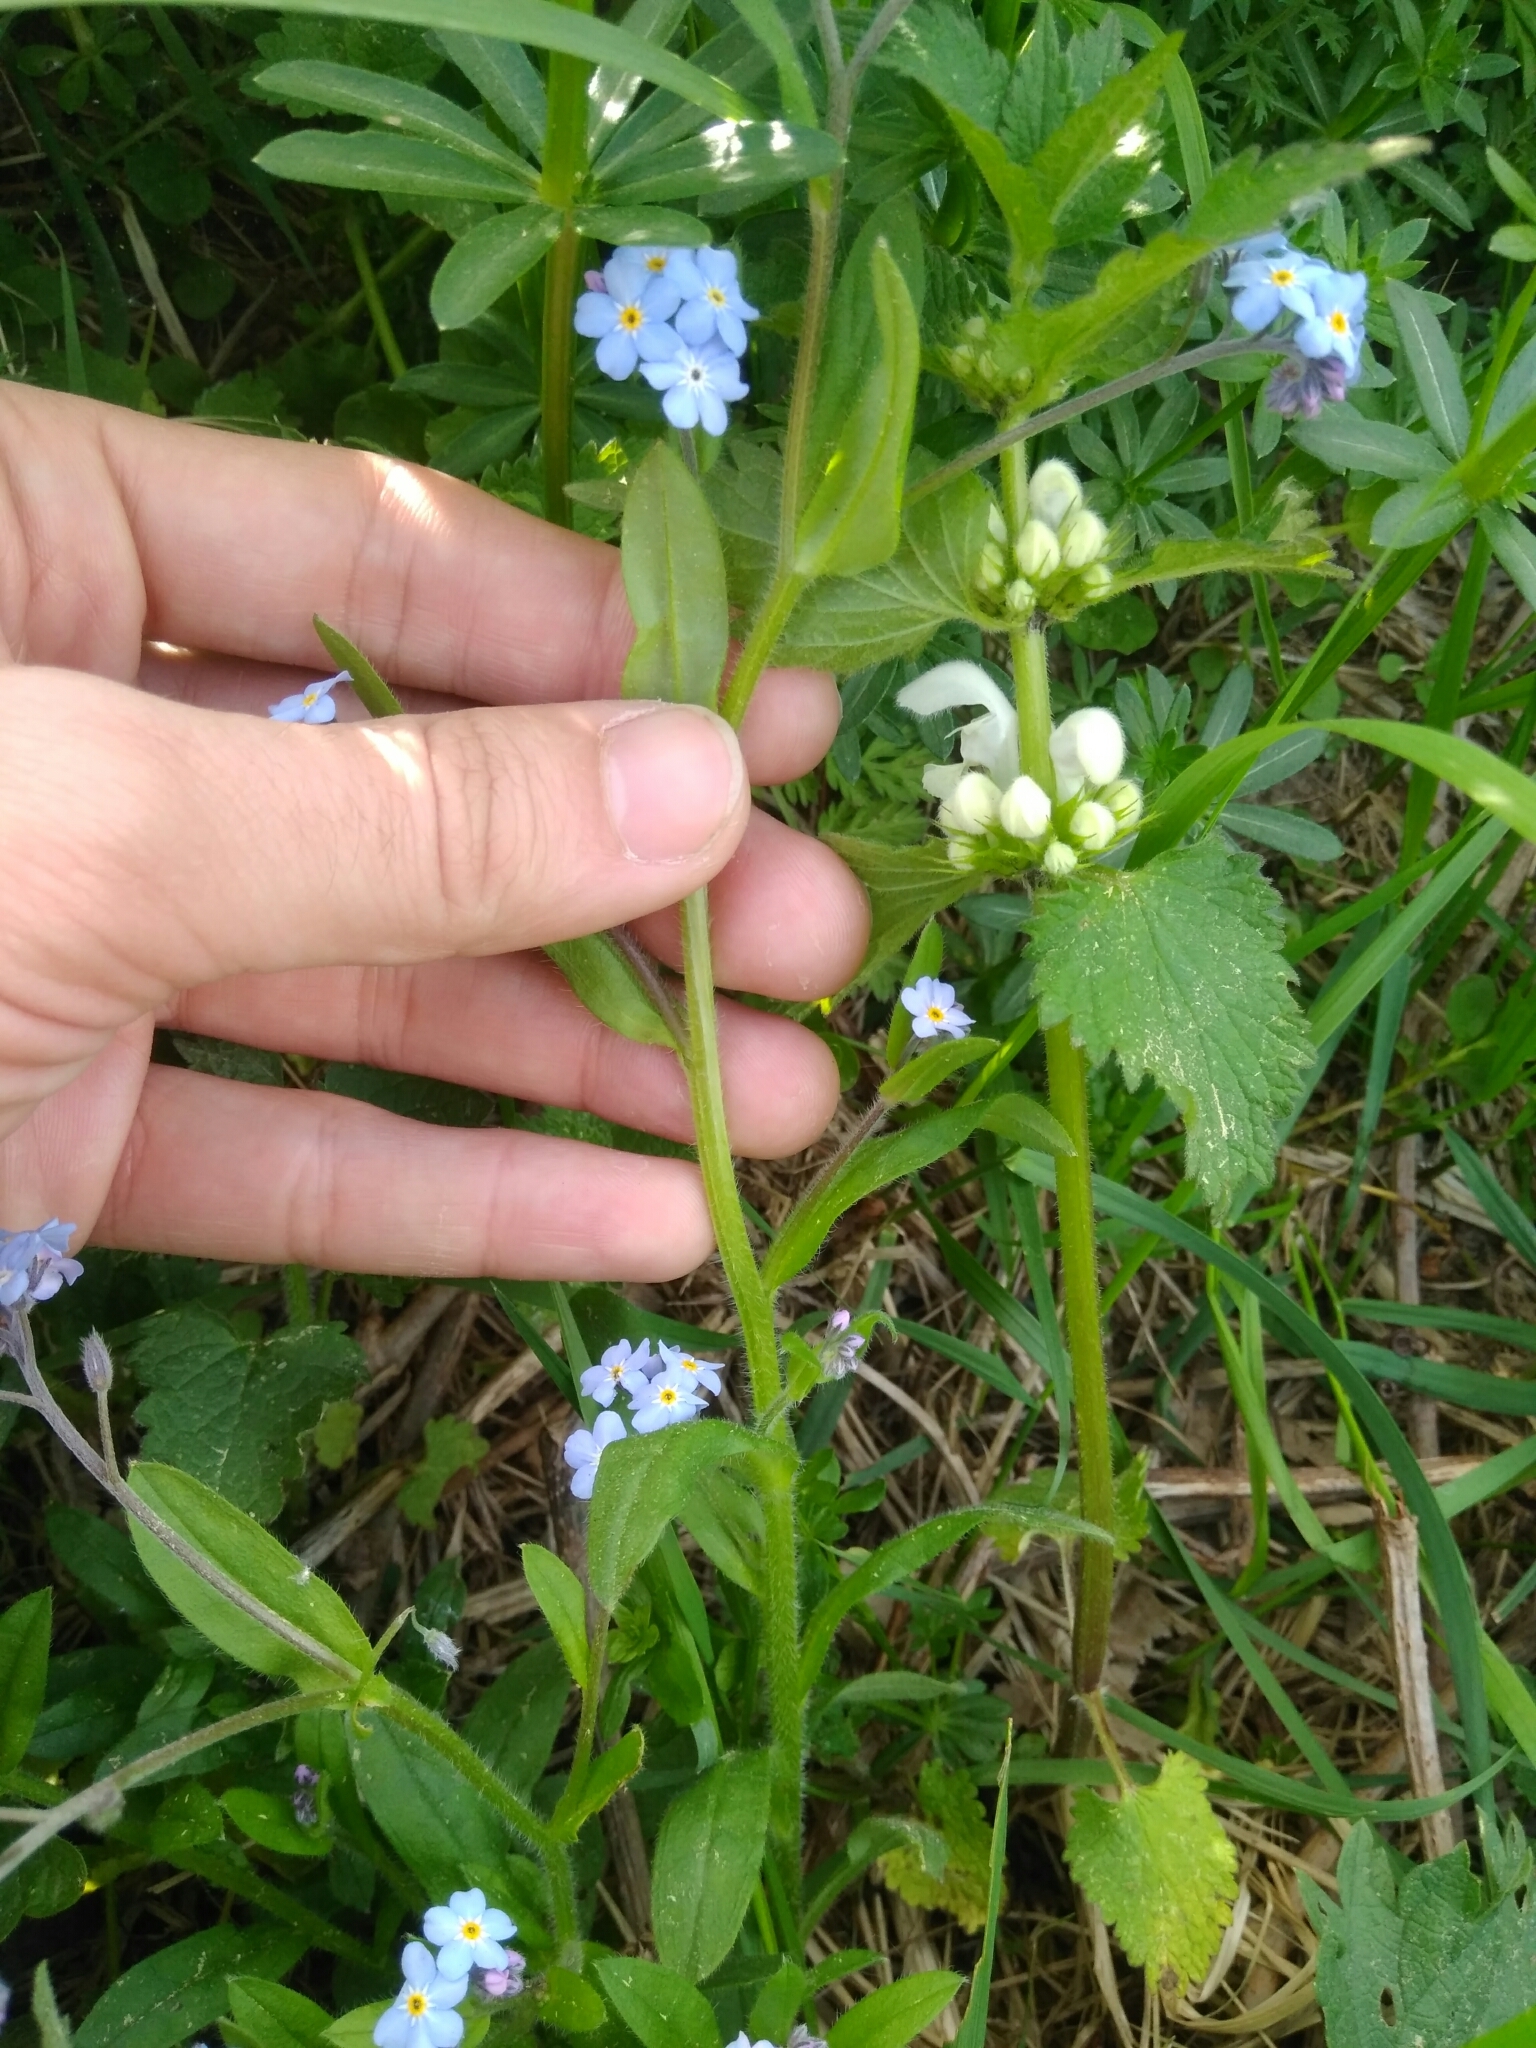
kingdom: Plantae
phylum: Tracheophyta
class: Magnoliopsida
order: Boraginales
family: Boraginaceae
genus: Myosotis
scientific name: Myosotis sylvatica
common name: Wood forget-me-not
